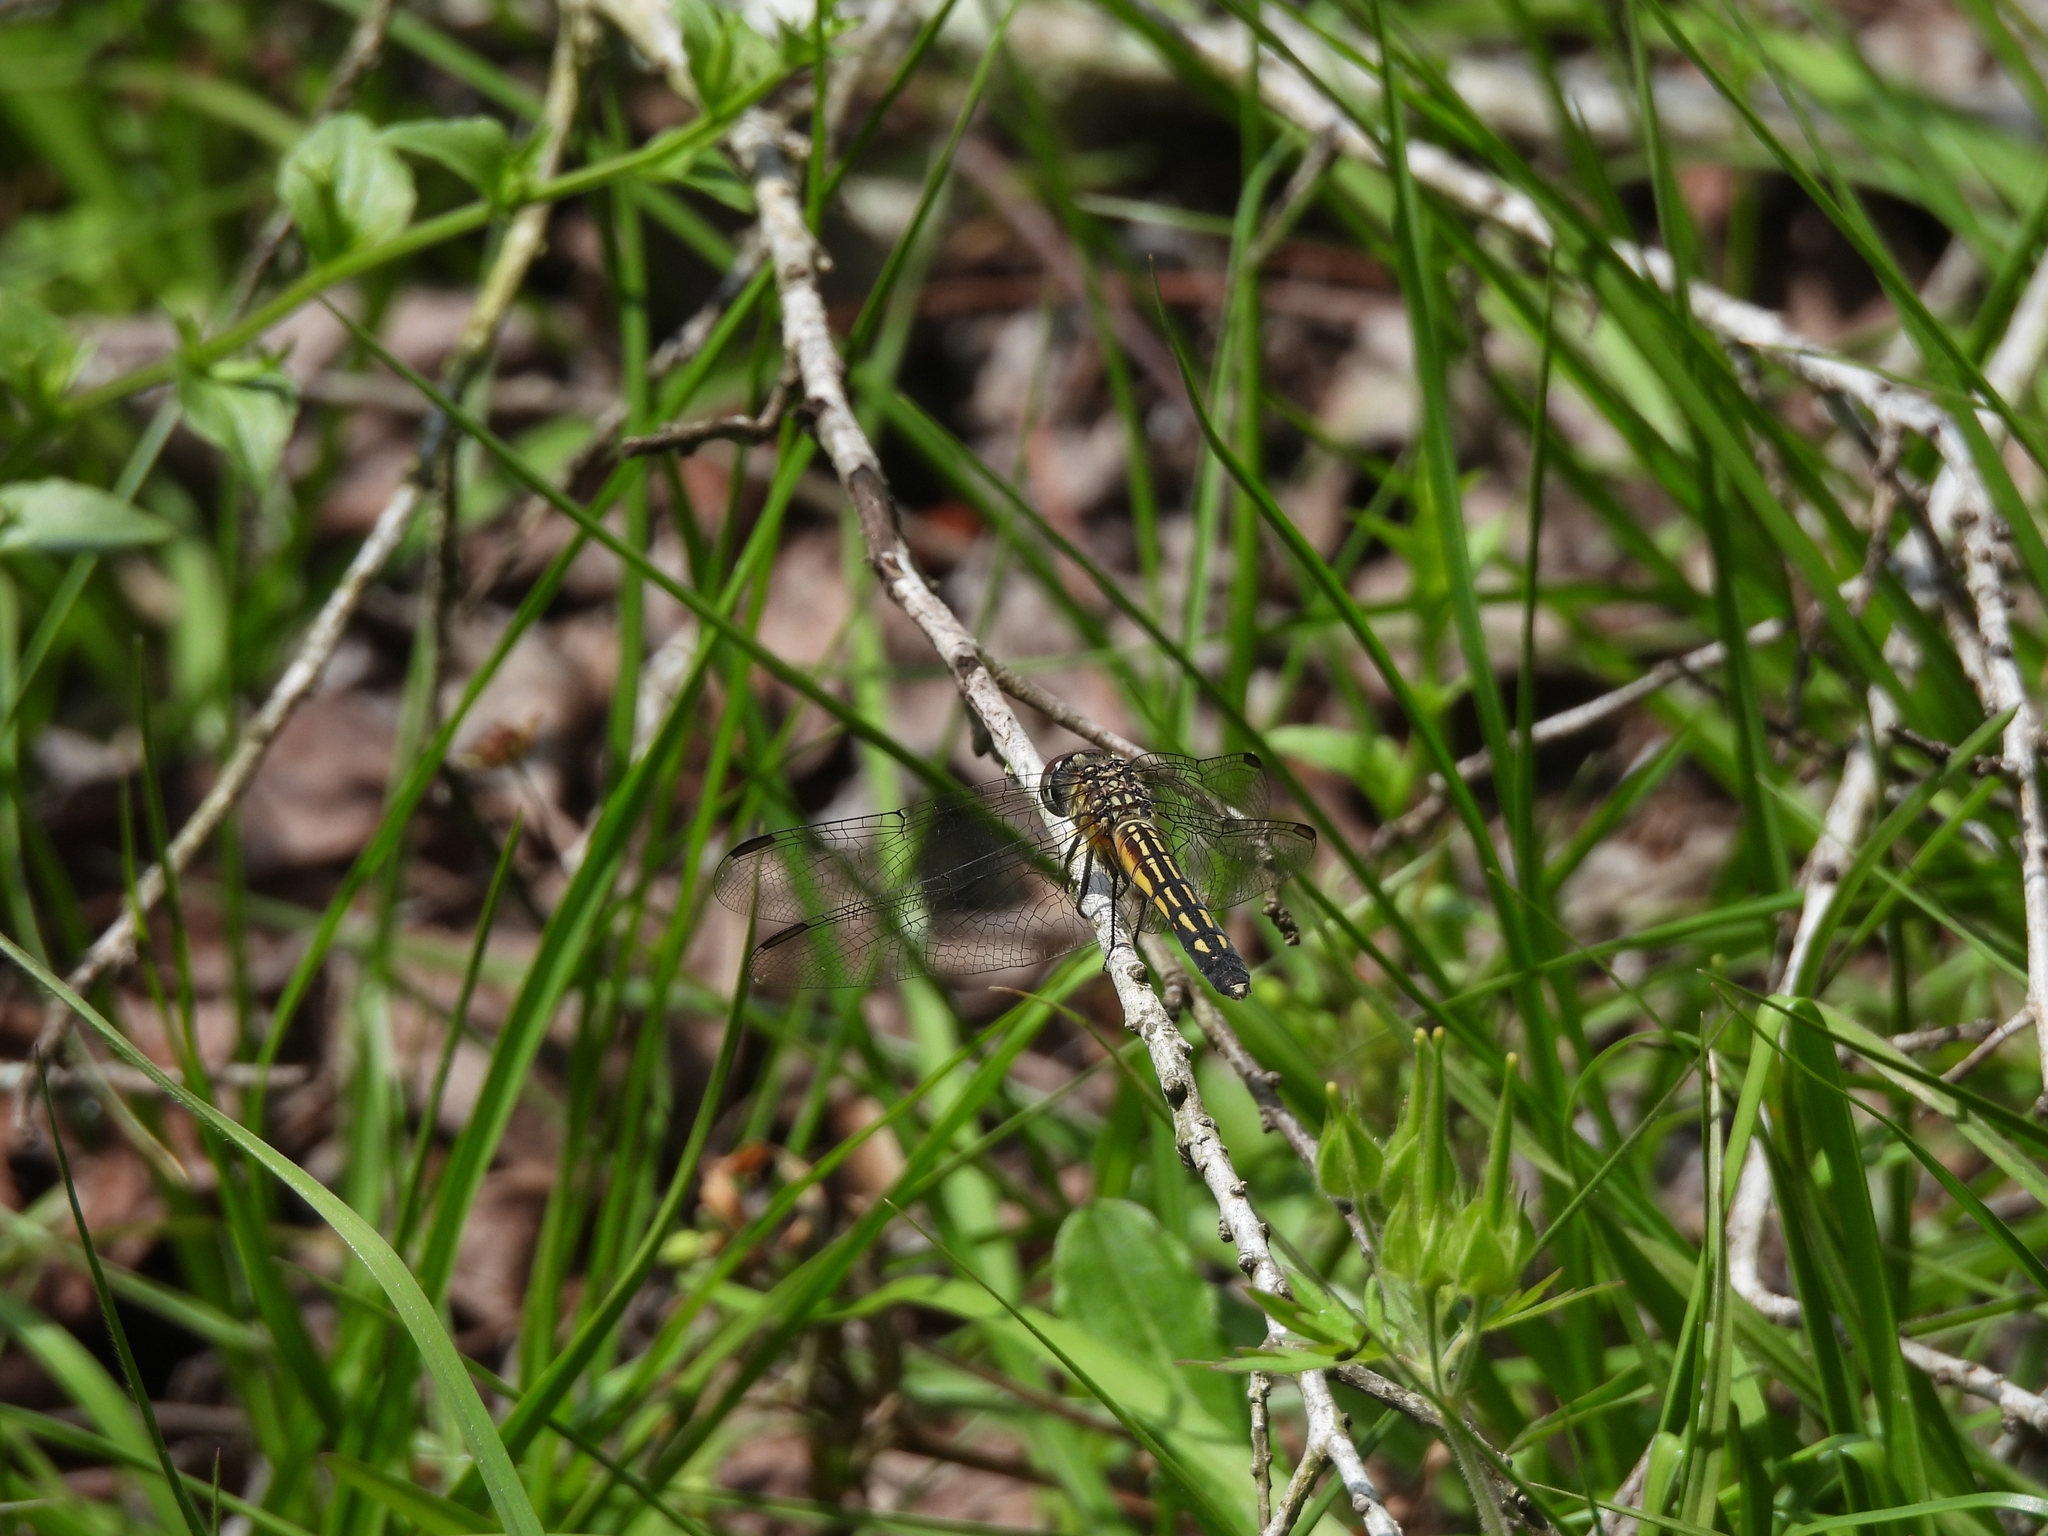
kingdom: Animalia
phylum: Arthropoda
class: Insecta
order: Odonata
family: Libellulidae
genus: Pachydiplax
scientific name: Pachydiplax longipennis
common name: Blue dasher
